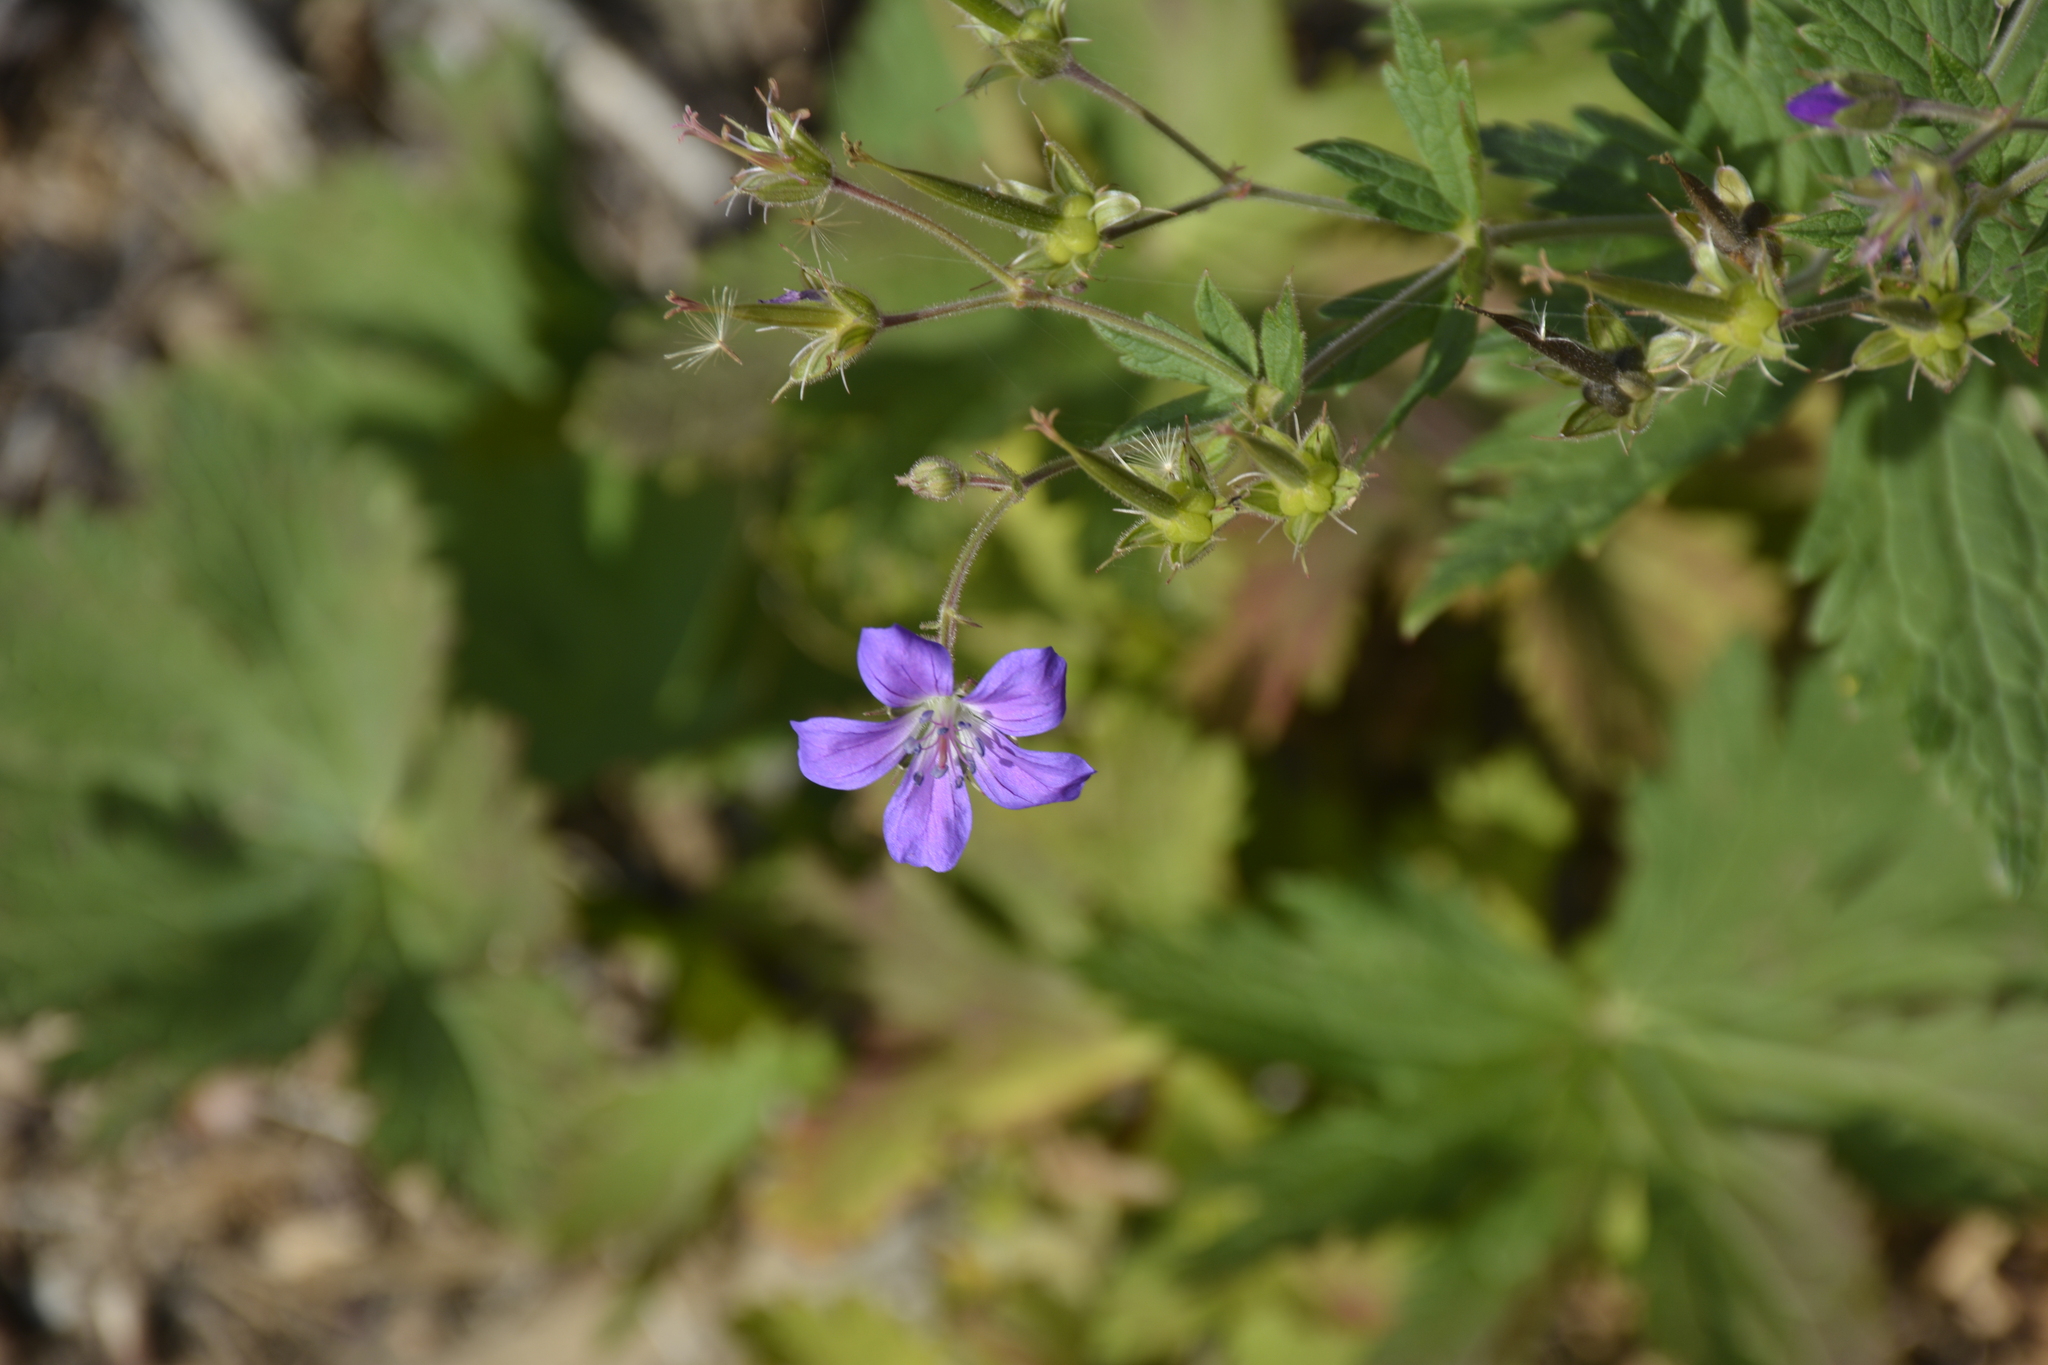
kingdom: Plantae
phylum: Tracheophyta
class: Magnoliopsida
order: Geraniales
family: Geraniaceae
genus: Geranium
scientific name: Geranium sylvaticum
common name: Wood crane's-bill
